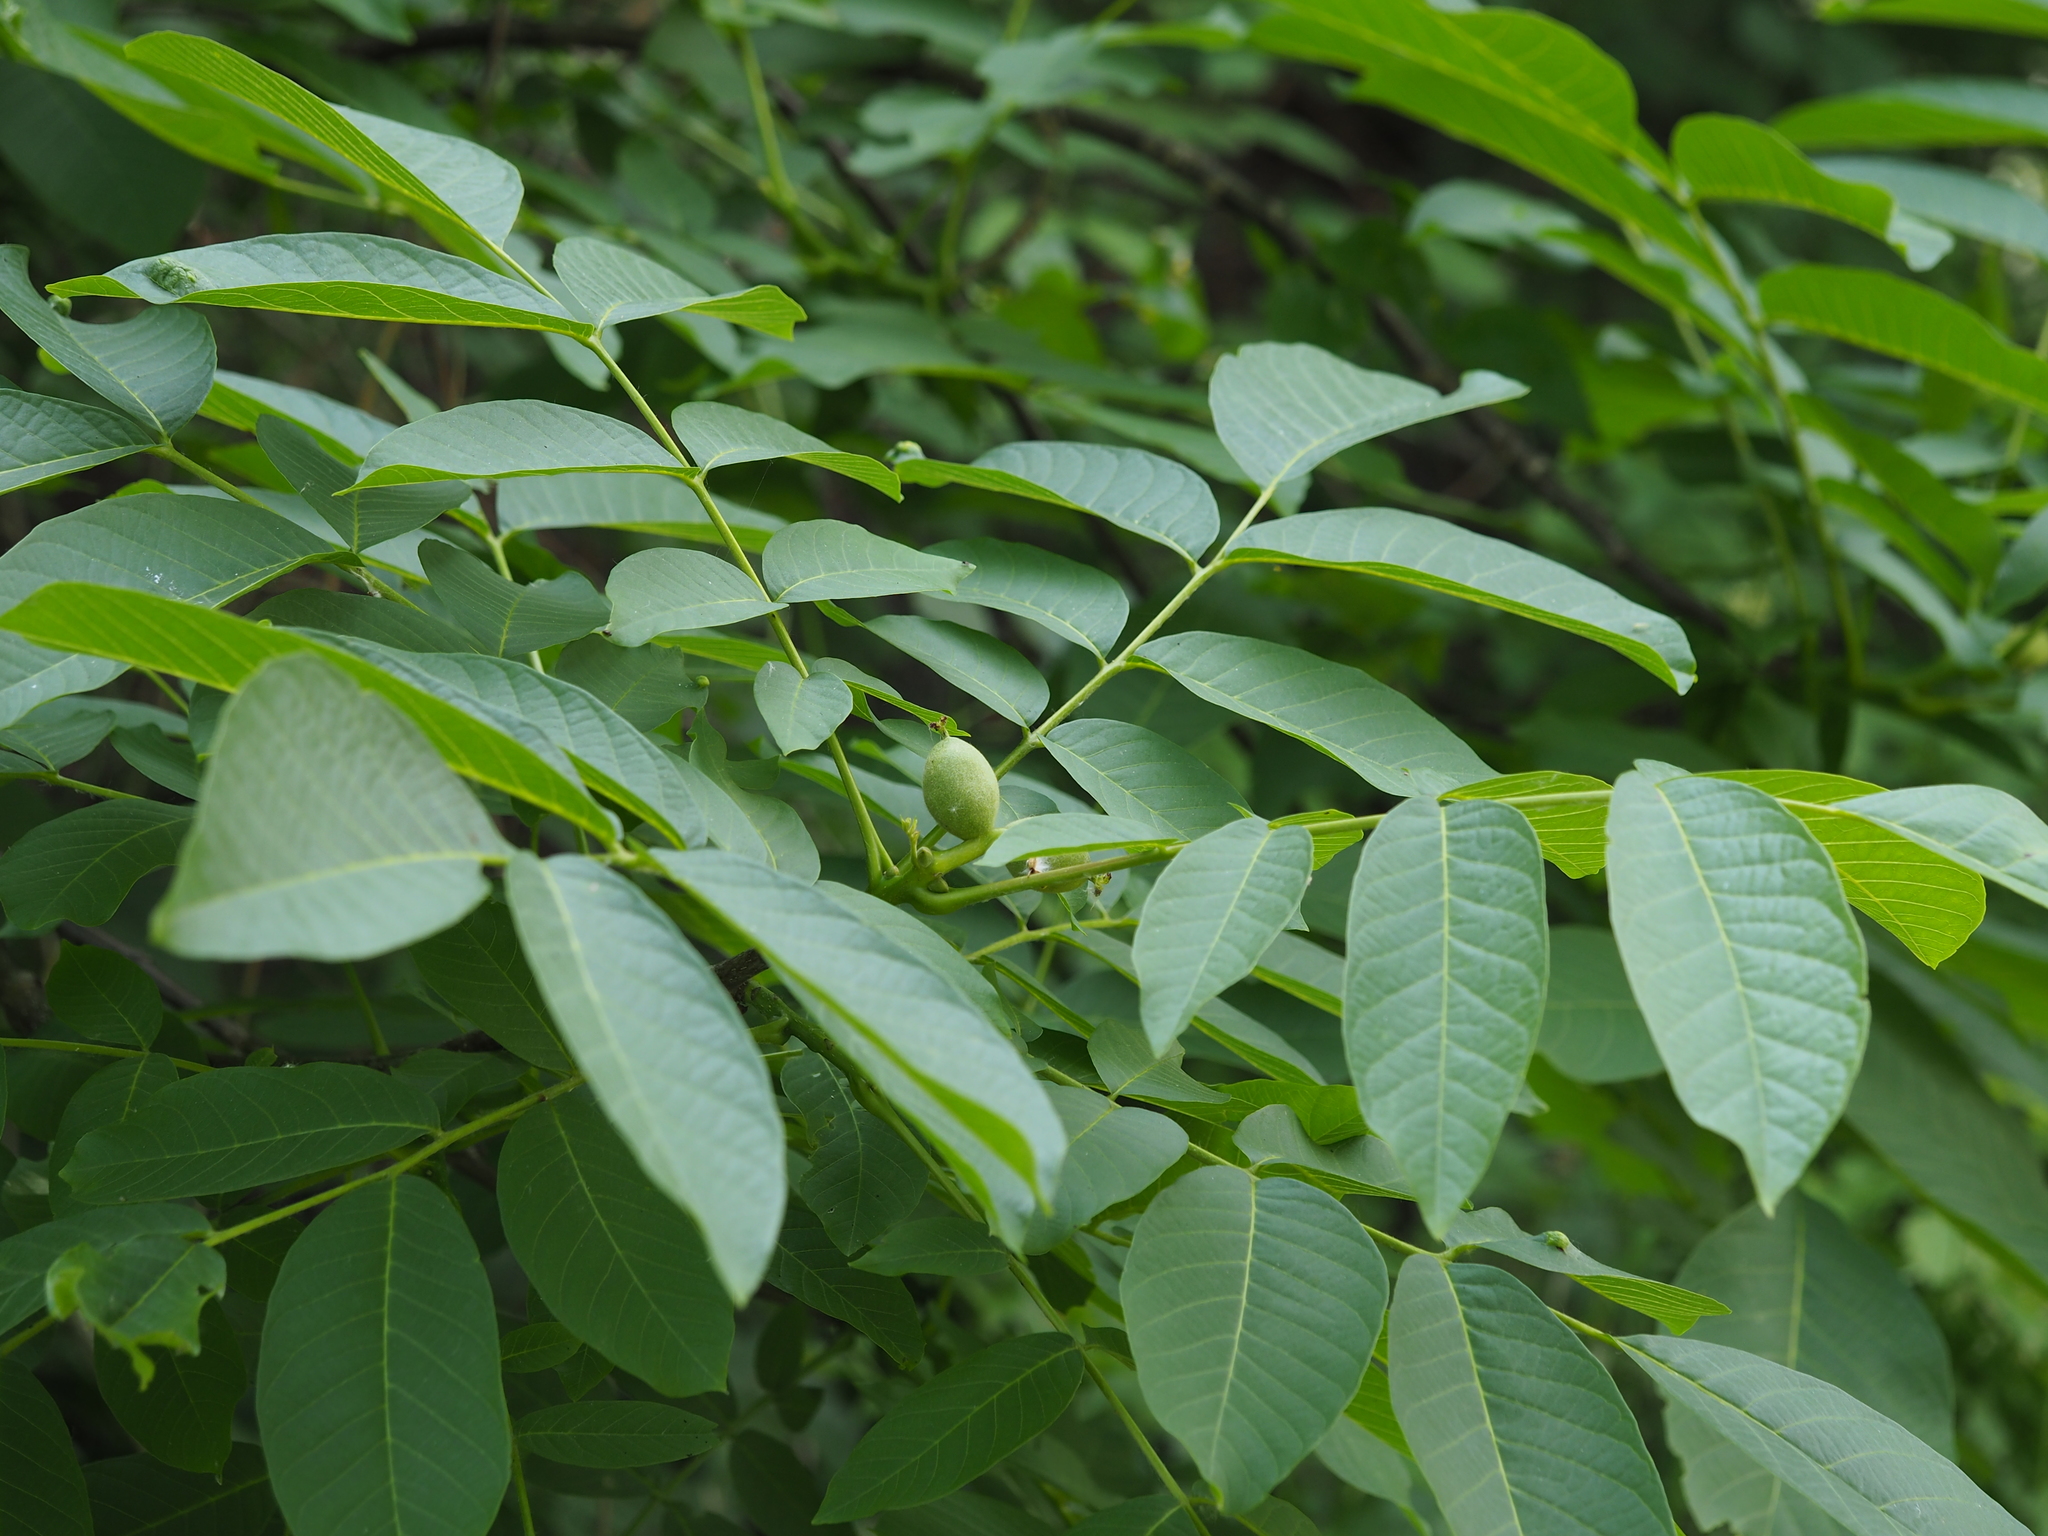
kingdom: Plantae
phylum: Tracheophyta
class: Magnoliopsida
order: Fagales
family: Juglandaceae
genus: Juglans
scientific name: Juglans regia
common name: Walnut
